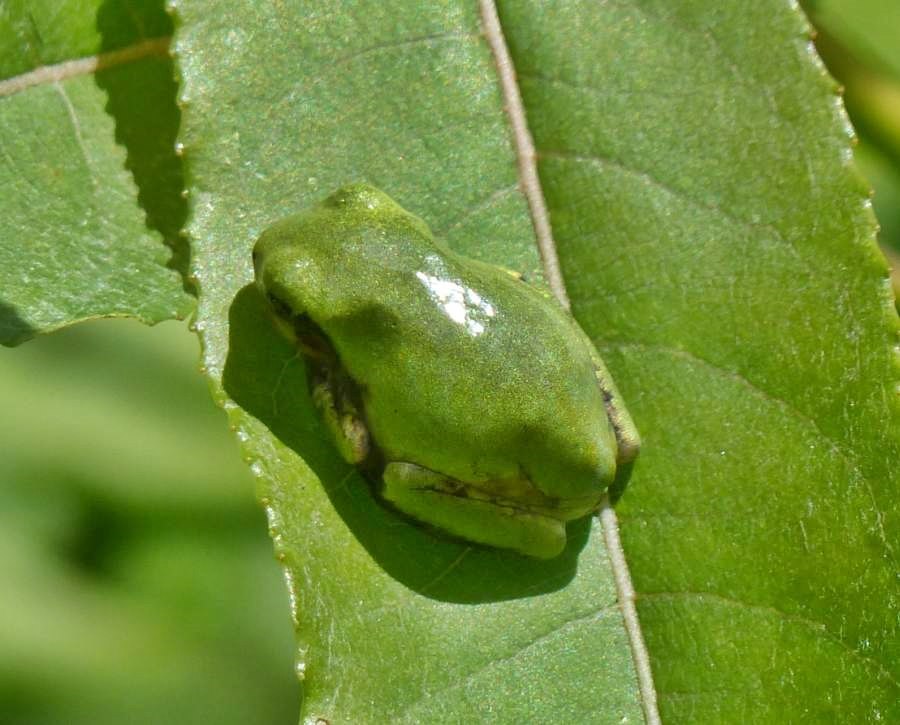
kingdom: Animalia
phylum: Chordata
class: Amphibia
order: Anura
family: Hylidae
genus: Dryophytes
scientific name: Dryophytes versicolor
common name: Gray treefrog
